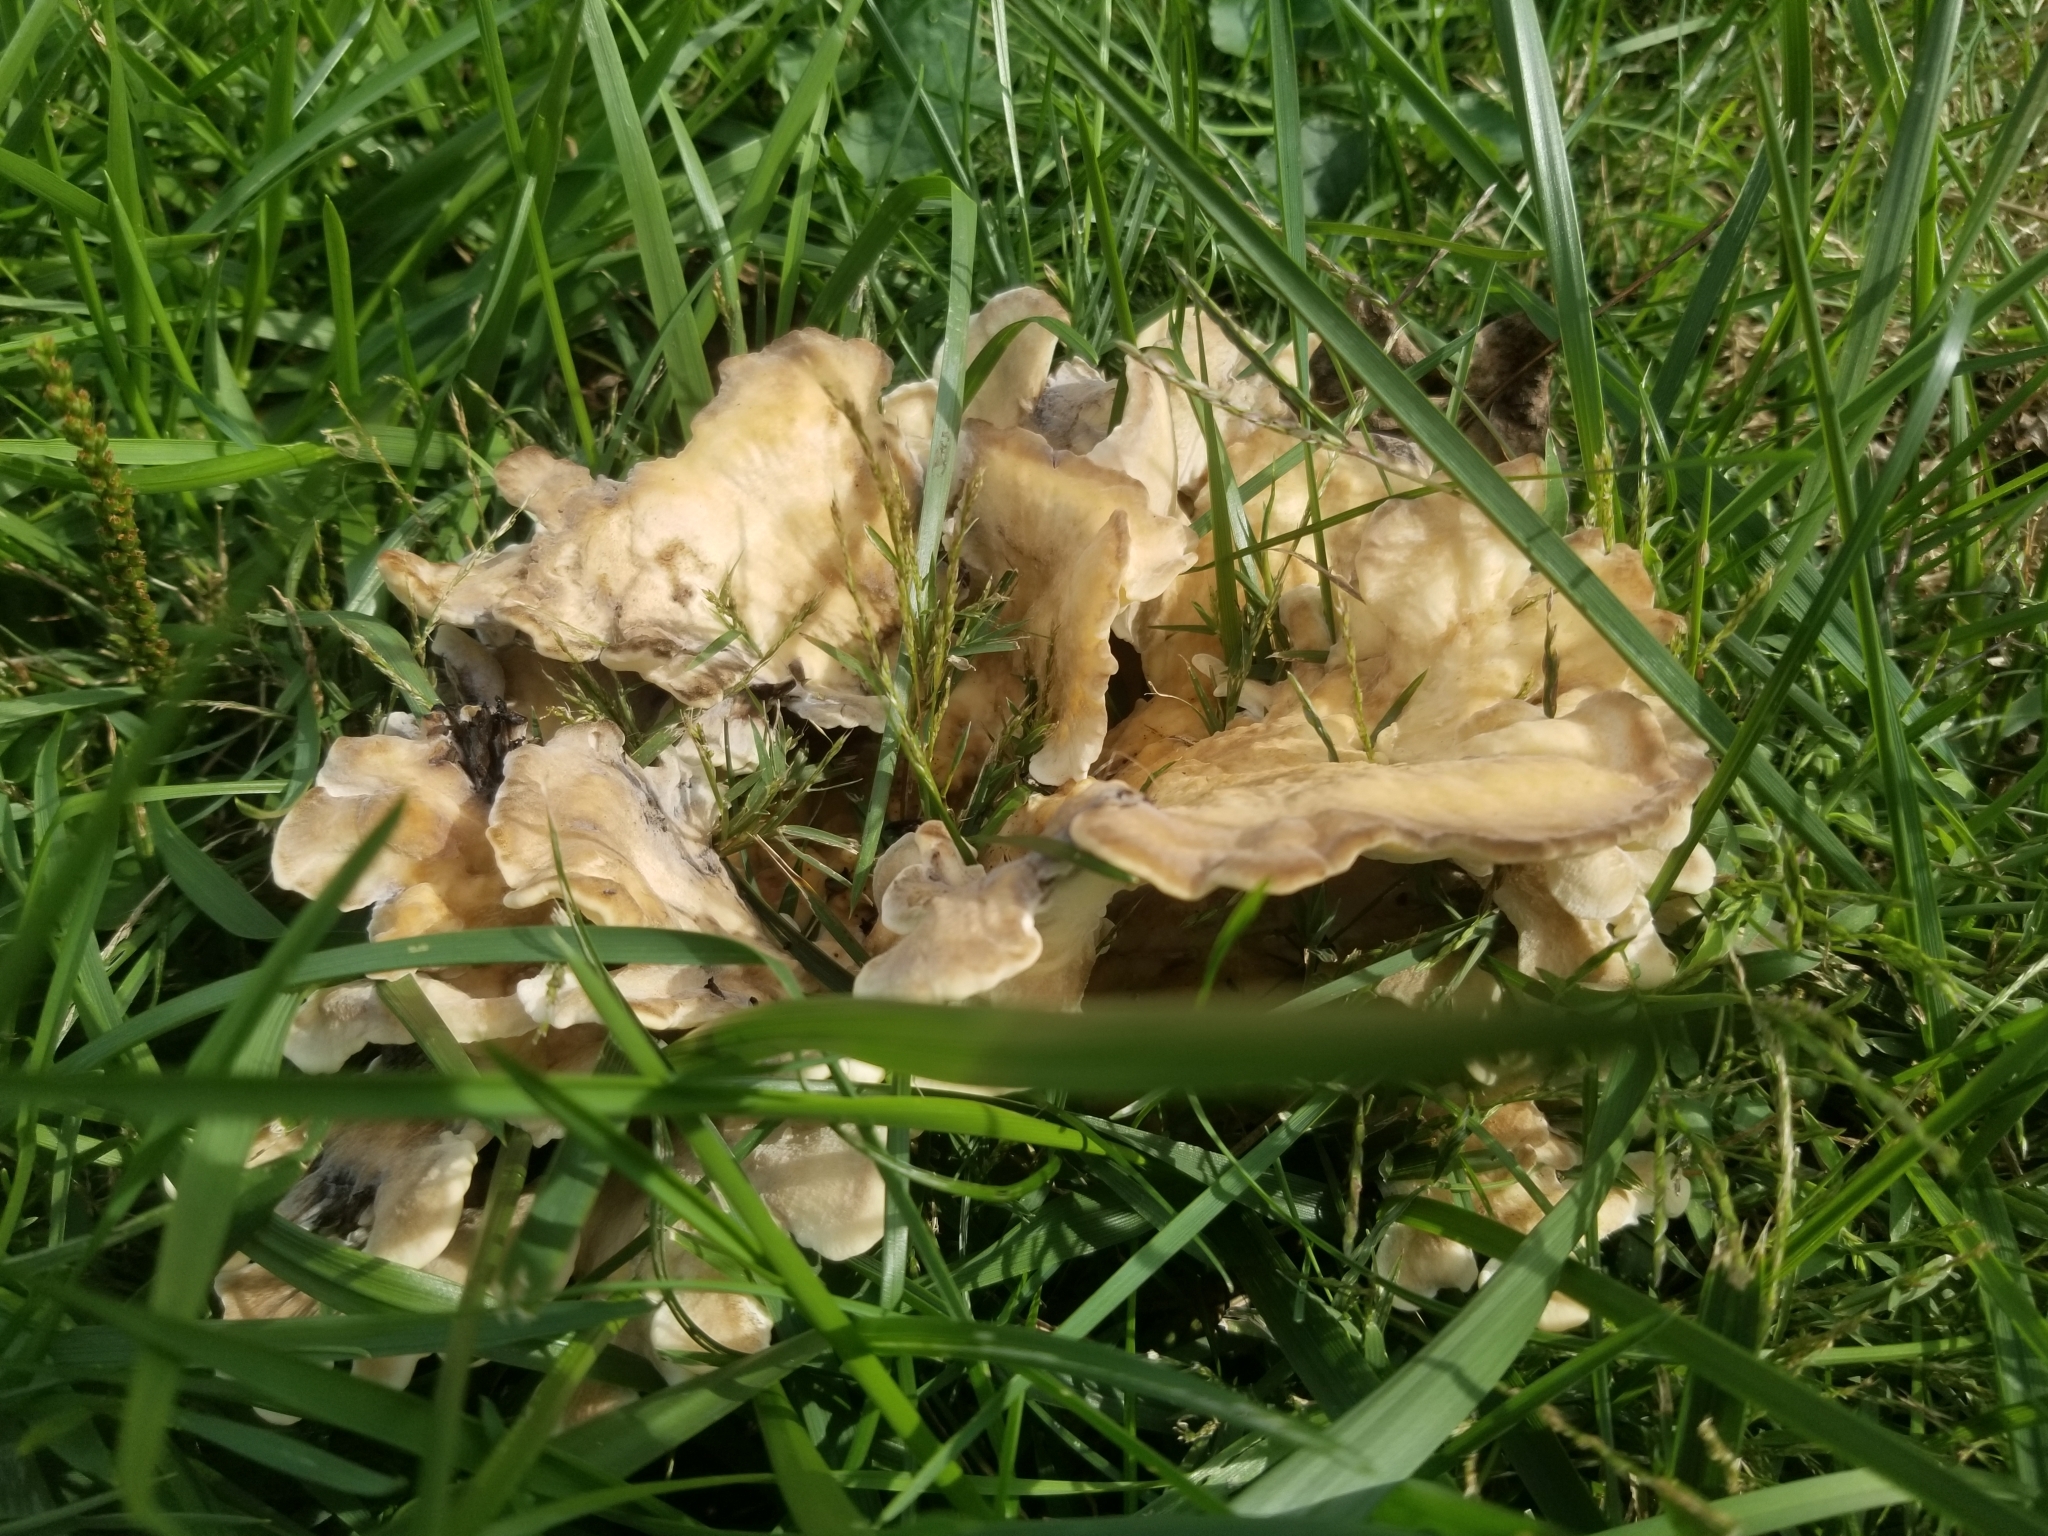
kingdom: Fungi
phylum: Basidiomycota
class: Agaricomycetes
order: Polyporales
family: Meripilaceae
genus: Meripilus
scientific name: Meripilus sumstinei
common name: Black-staining polypore
